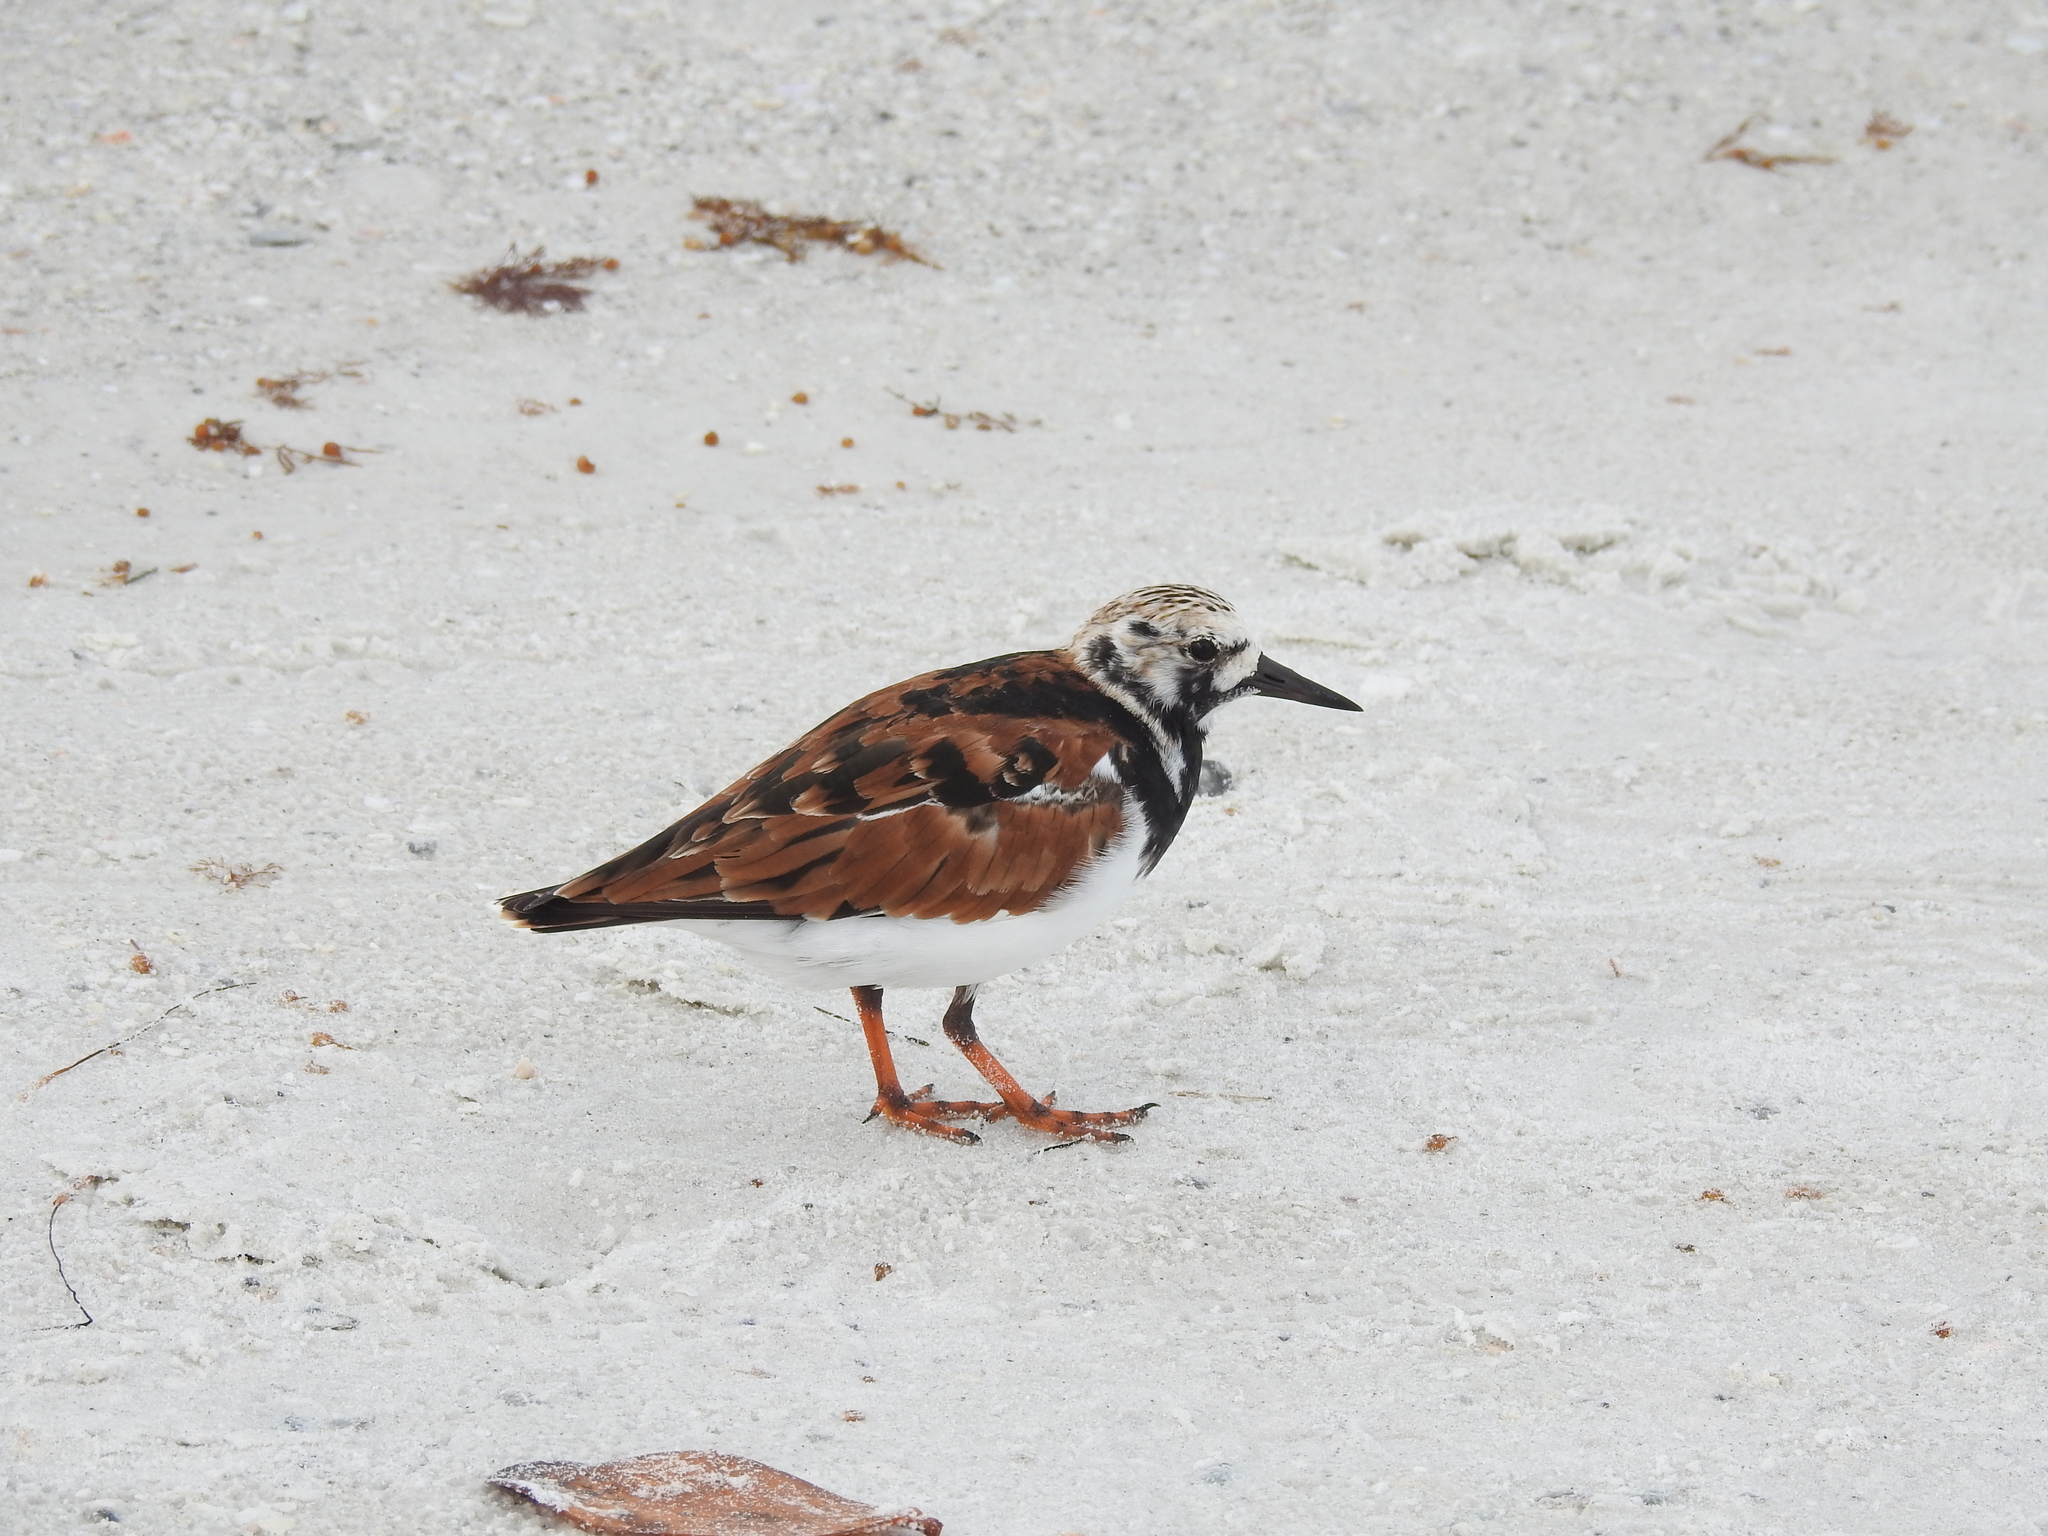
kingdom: Animalia
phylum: Chordata
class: Aves
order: Charadriiformes
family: Scolopacidae
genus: Arenaria
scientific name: Arenaria interpres
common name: Ruddy turnstone
